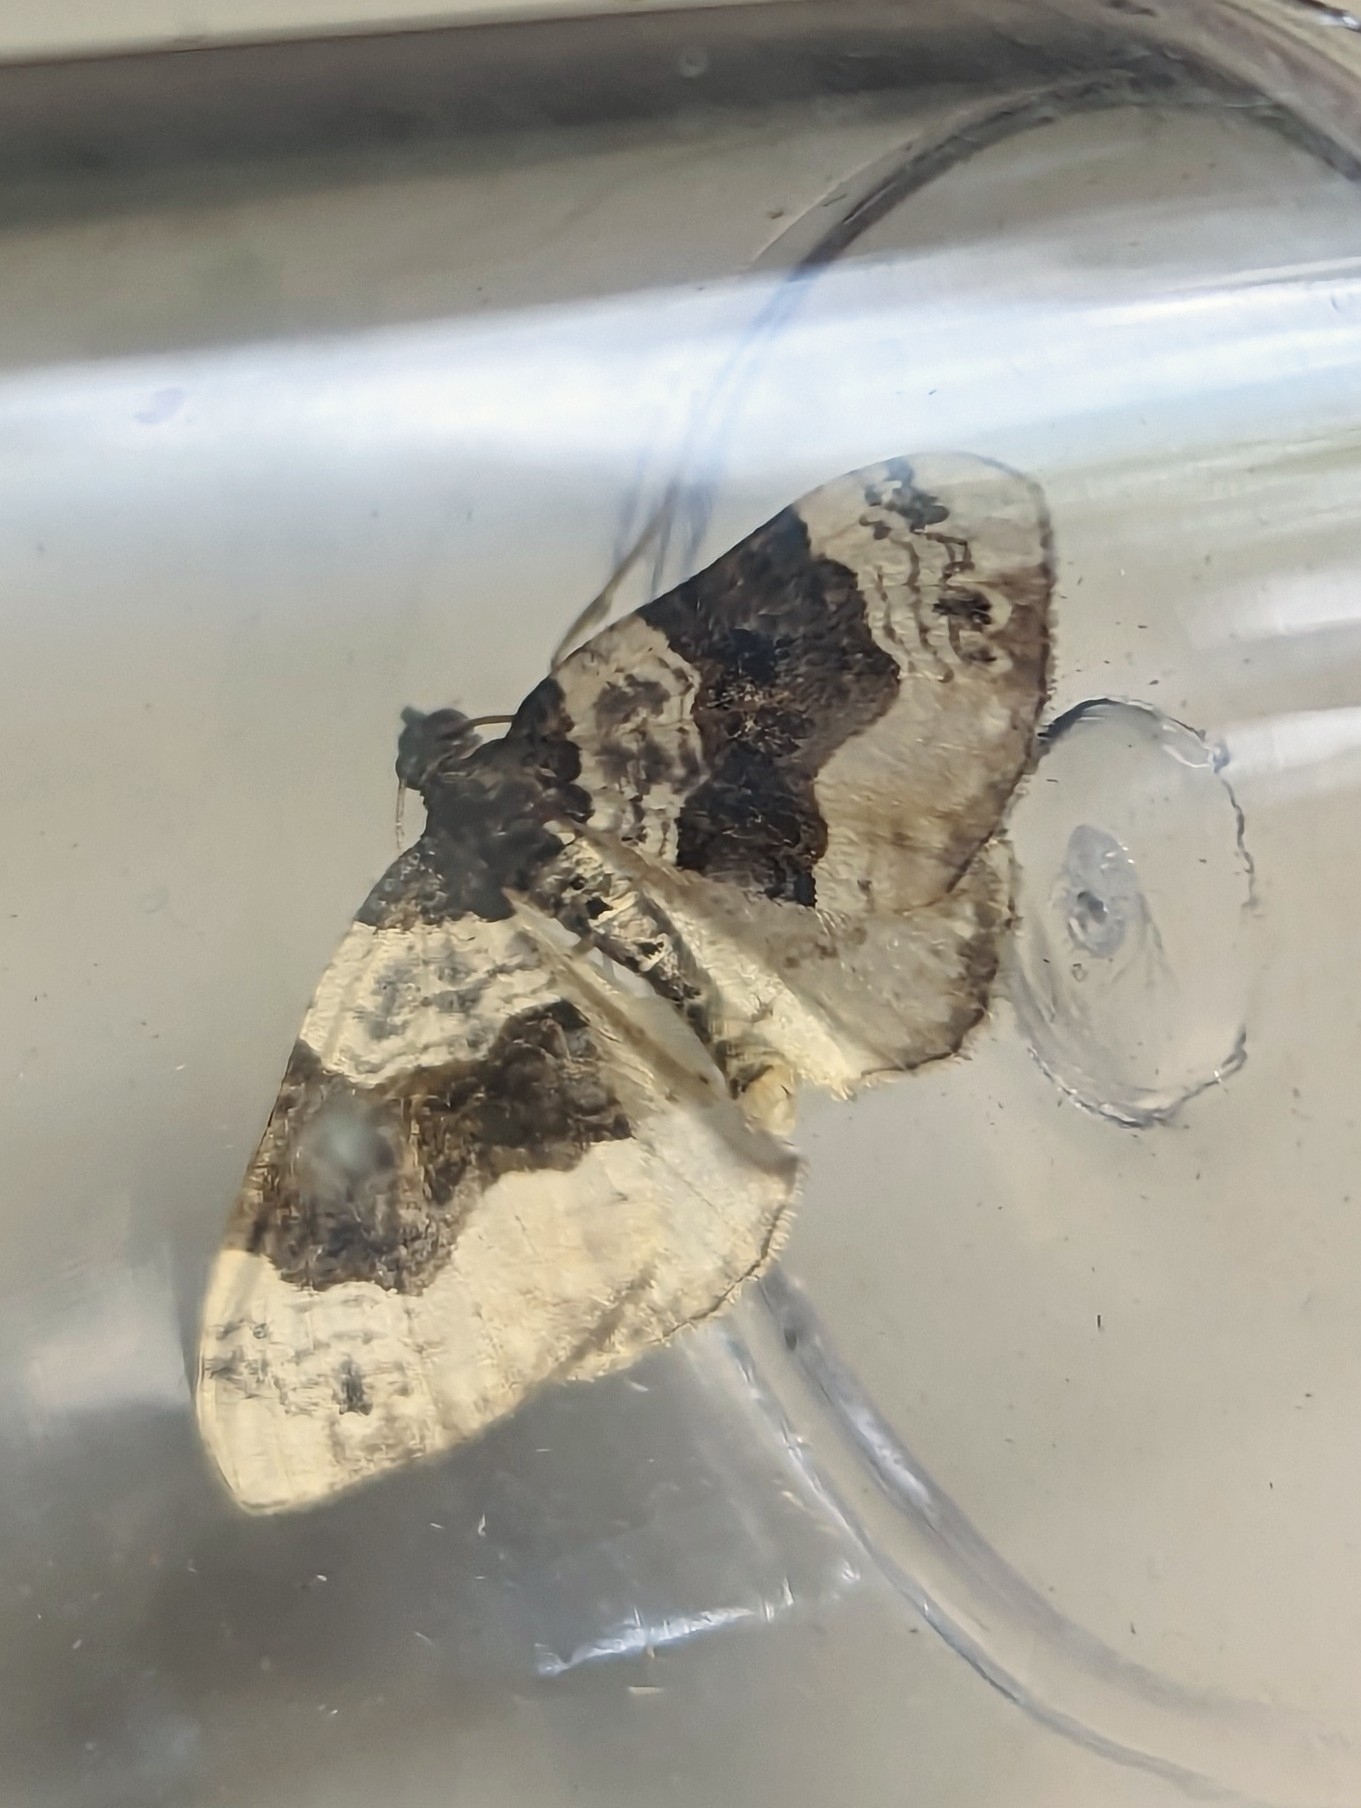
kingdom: Animalia
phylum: Arthropoda
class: Insecta
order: Lepidoptera
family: Geometridae
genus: Cosmorhoe
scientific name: Cosmorhoe ocellata
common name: Purple bar
